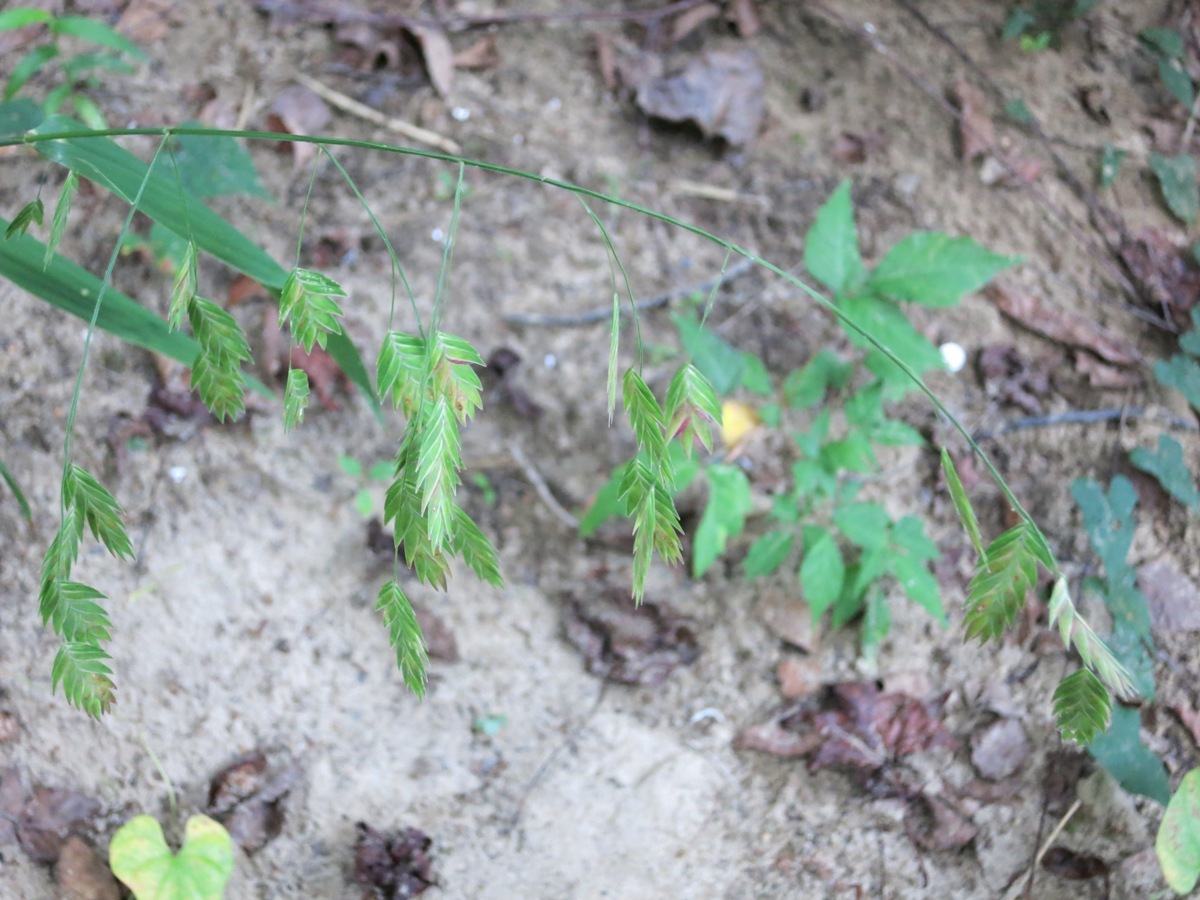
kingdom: Plantae
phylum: Tracheophyta
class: Liliopsida
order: Poales
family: Poaceae
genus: Chasmanthium
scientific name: Chasmanthium latifolium
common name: Broad-leaved chasmanthium
